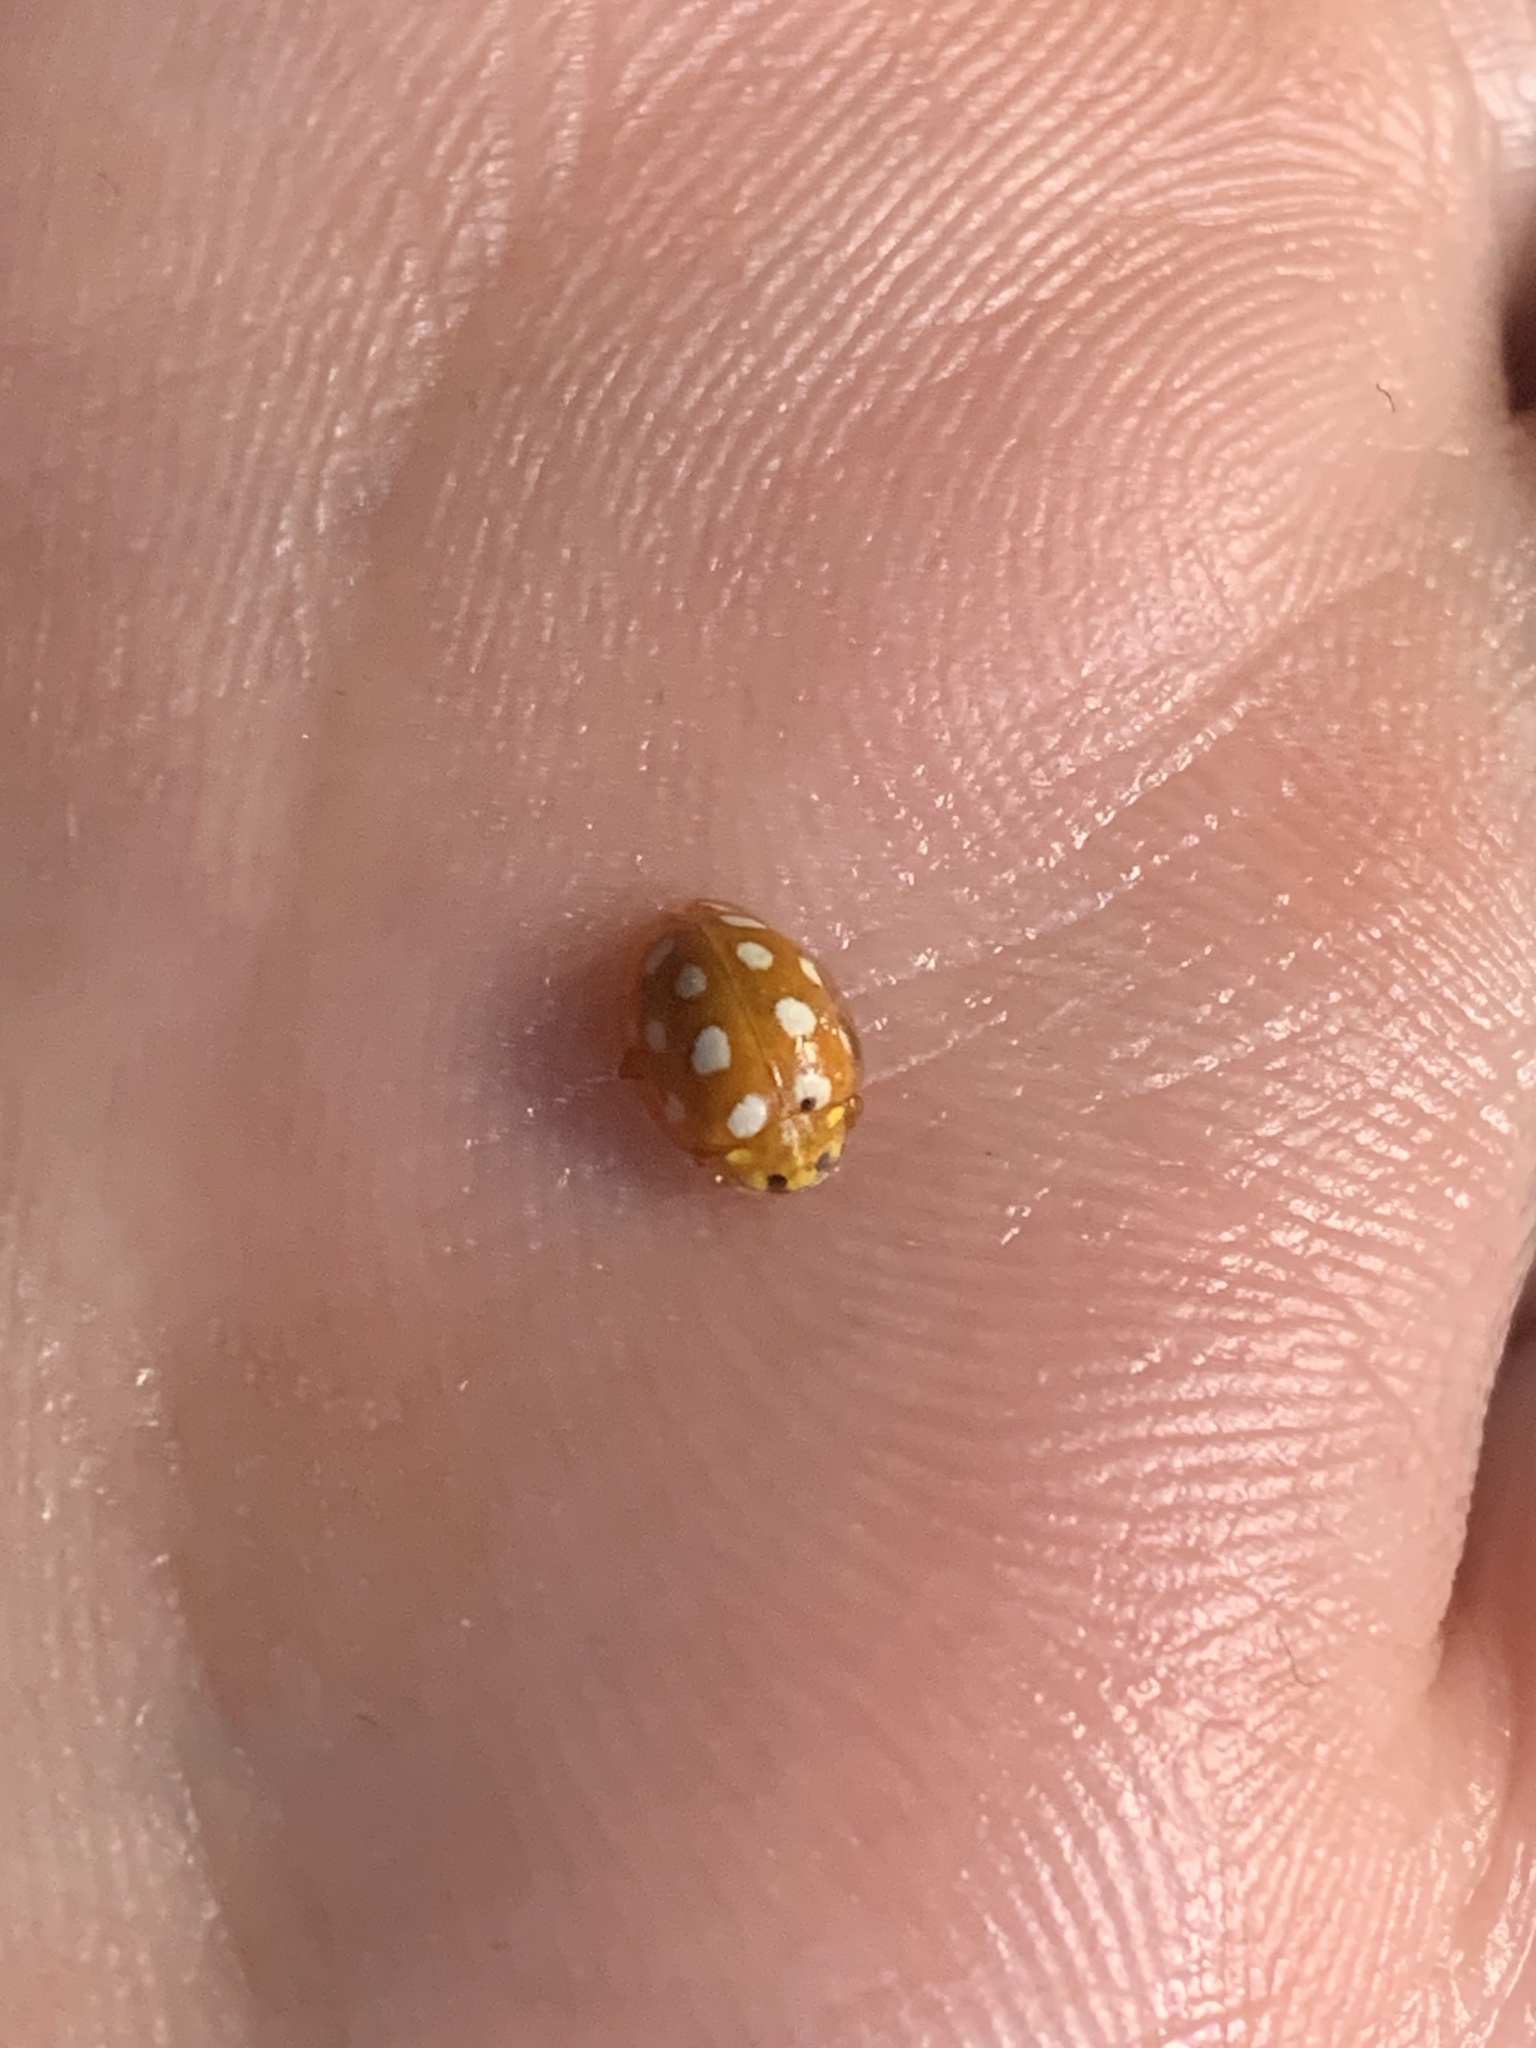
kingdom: Animalia
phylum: Arthropoda
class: Insecta
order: Coleoptera
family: Coccinellidae
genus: Halyzia
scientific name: Halyzia sedecimguttata
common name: Orange ladybird
